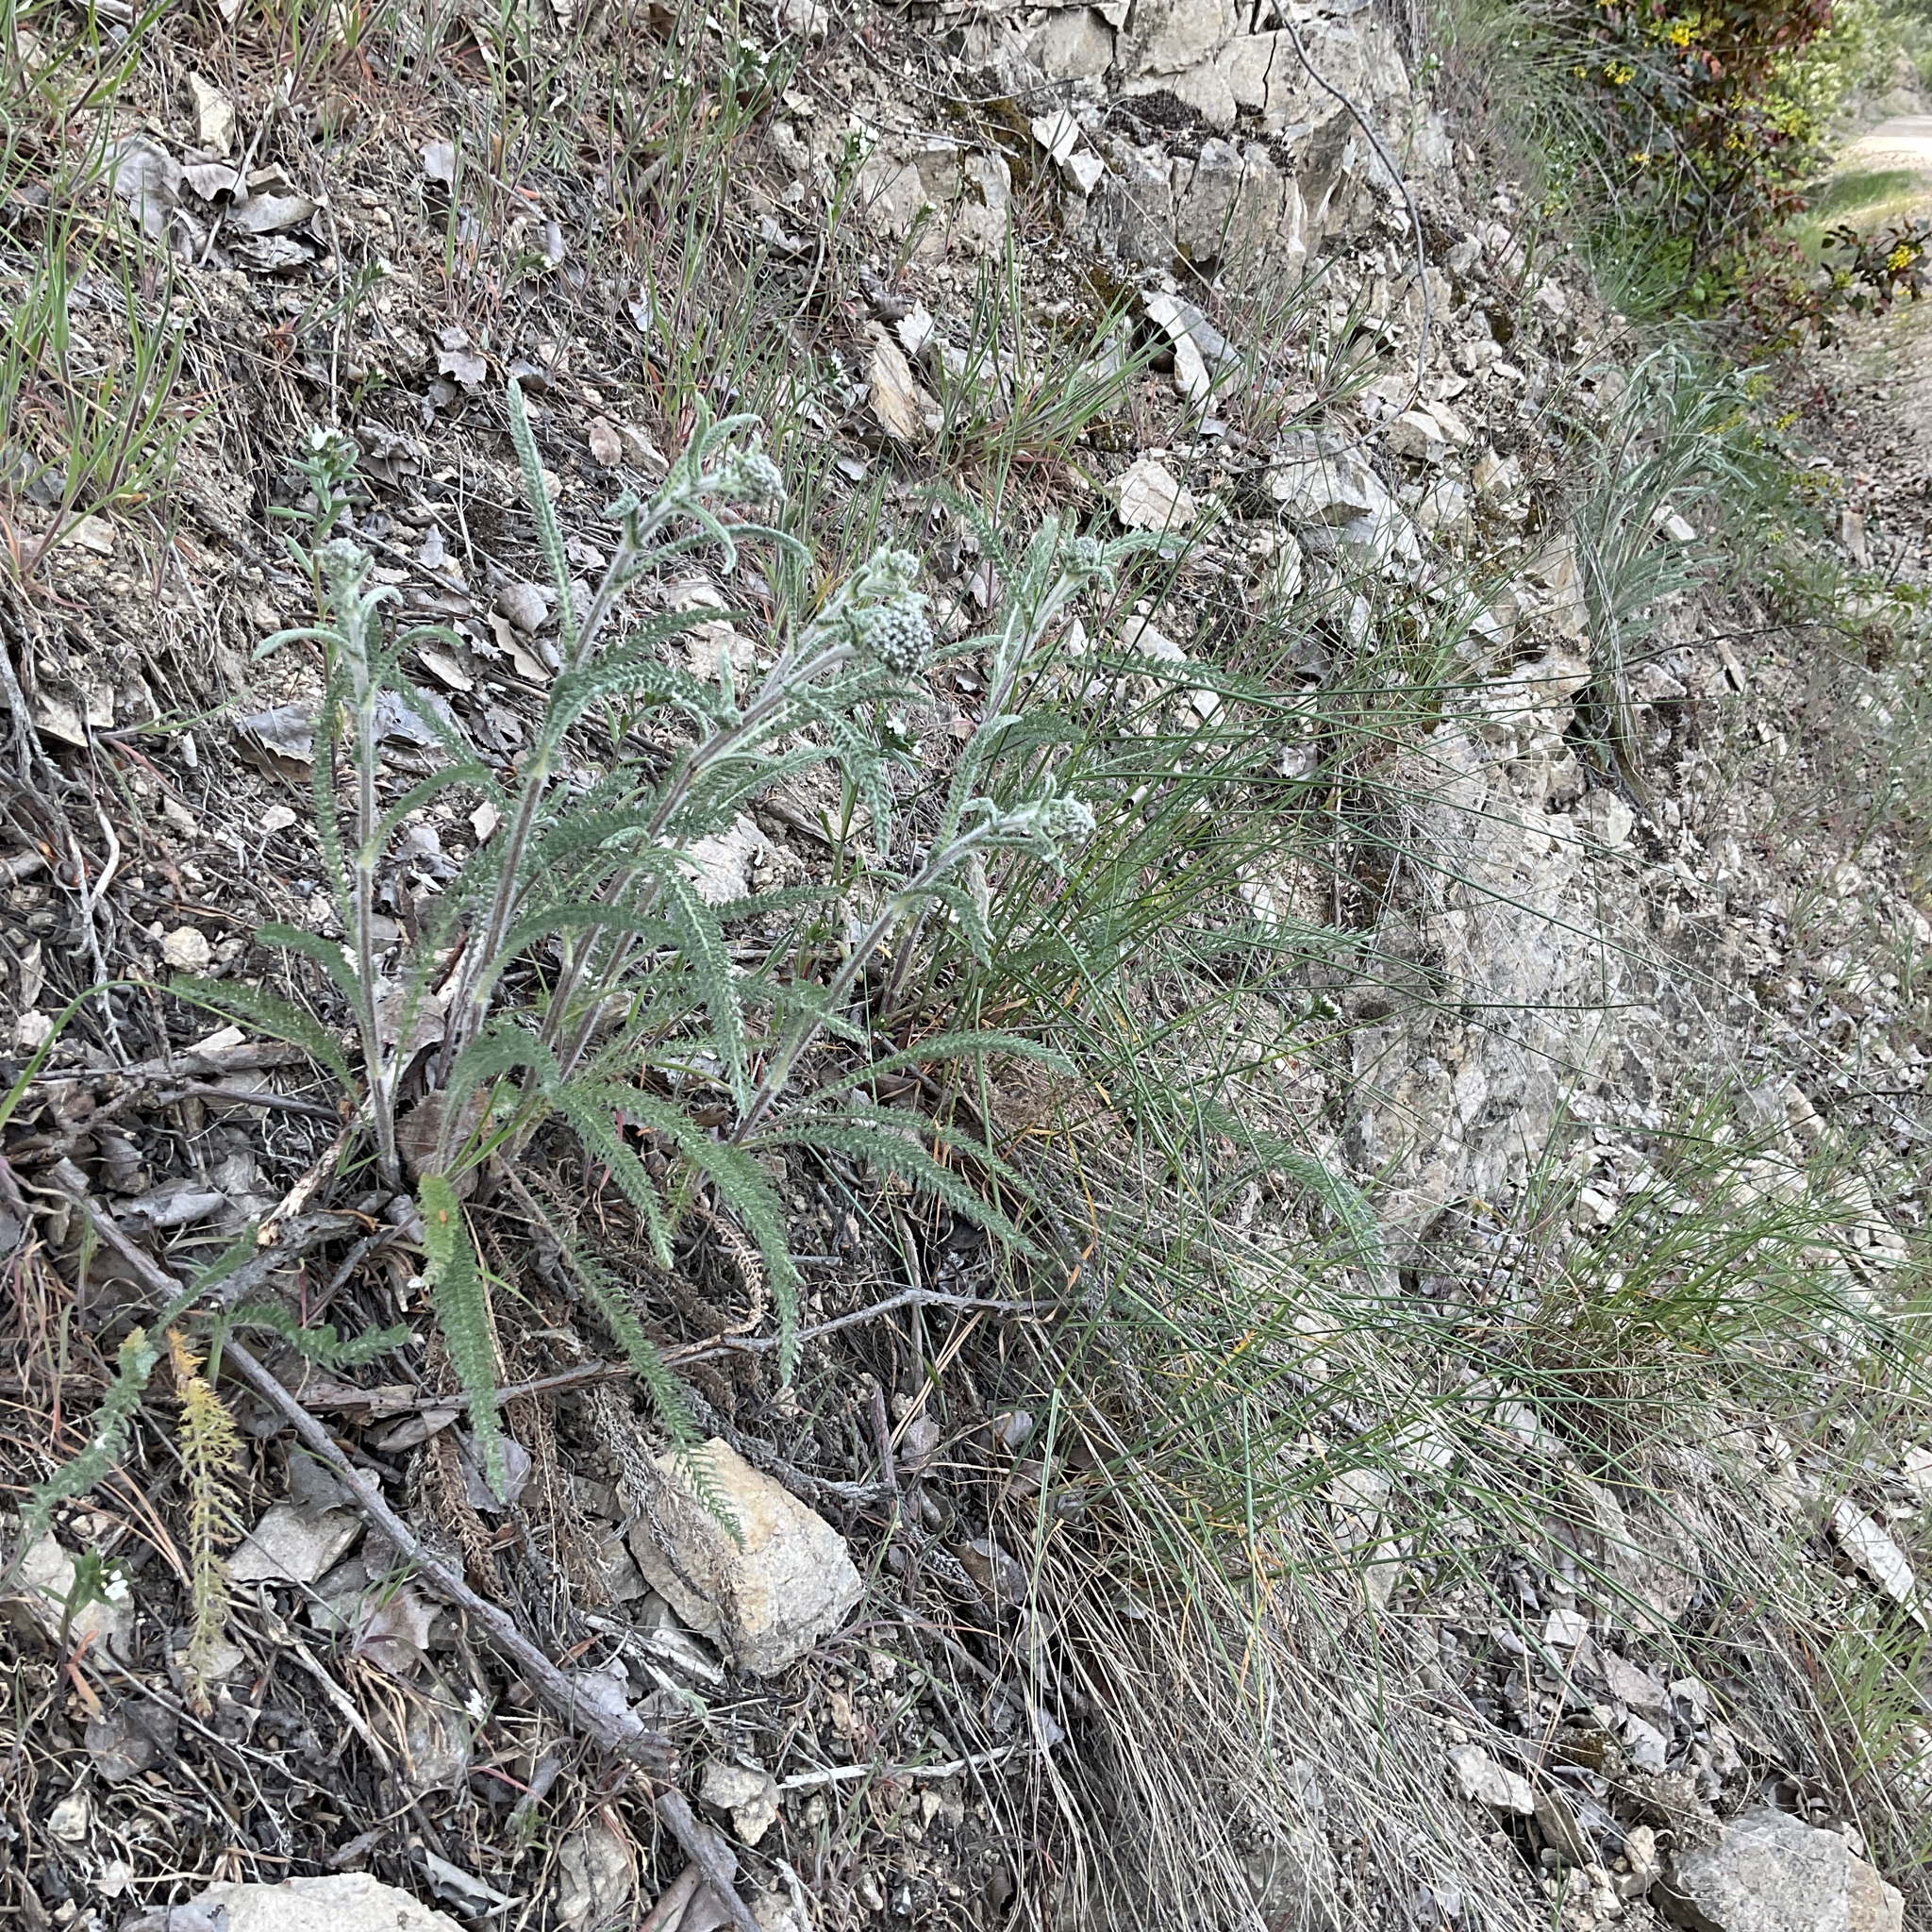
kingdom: Plantae
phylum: Tracheophyta
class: Magnoliopsida
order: Asterales
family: Asteraceae
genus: Achillea
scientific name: Achillea millefolium
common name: Yarrow
